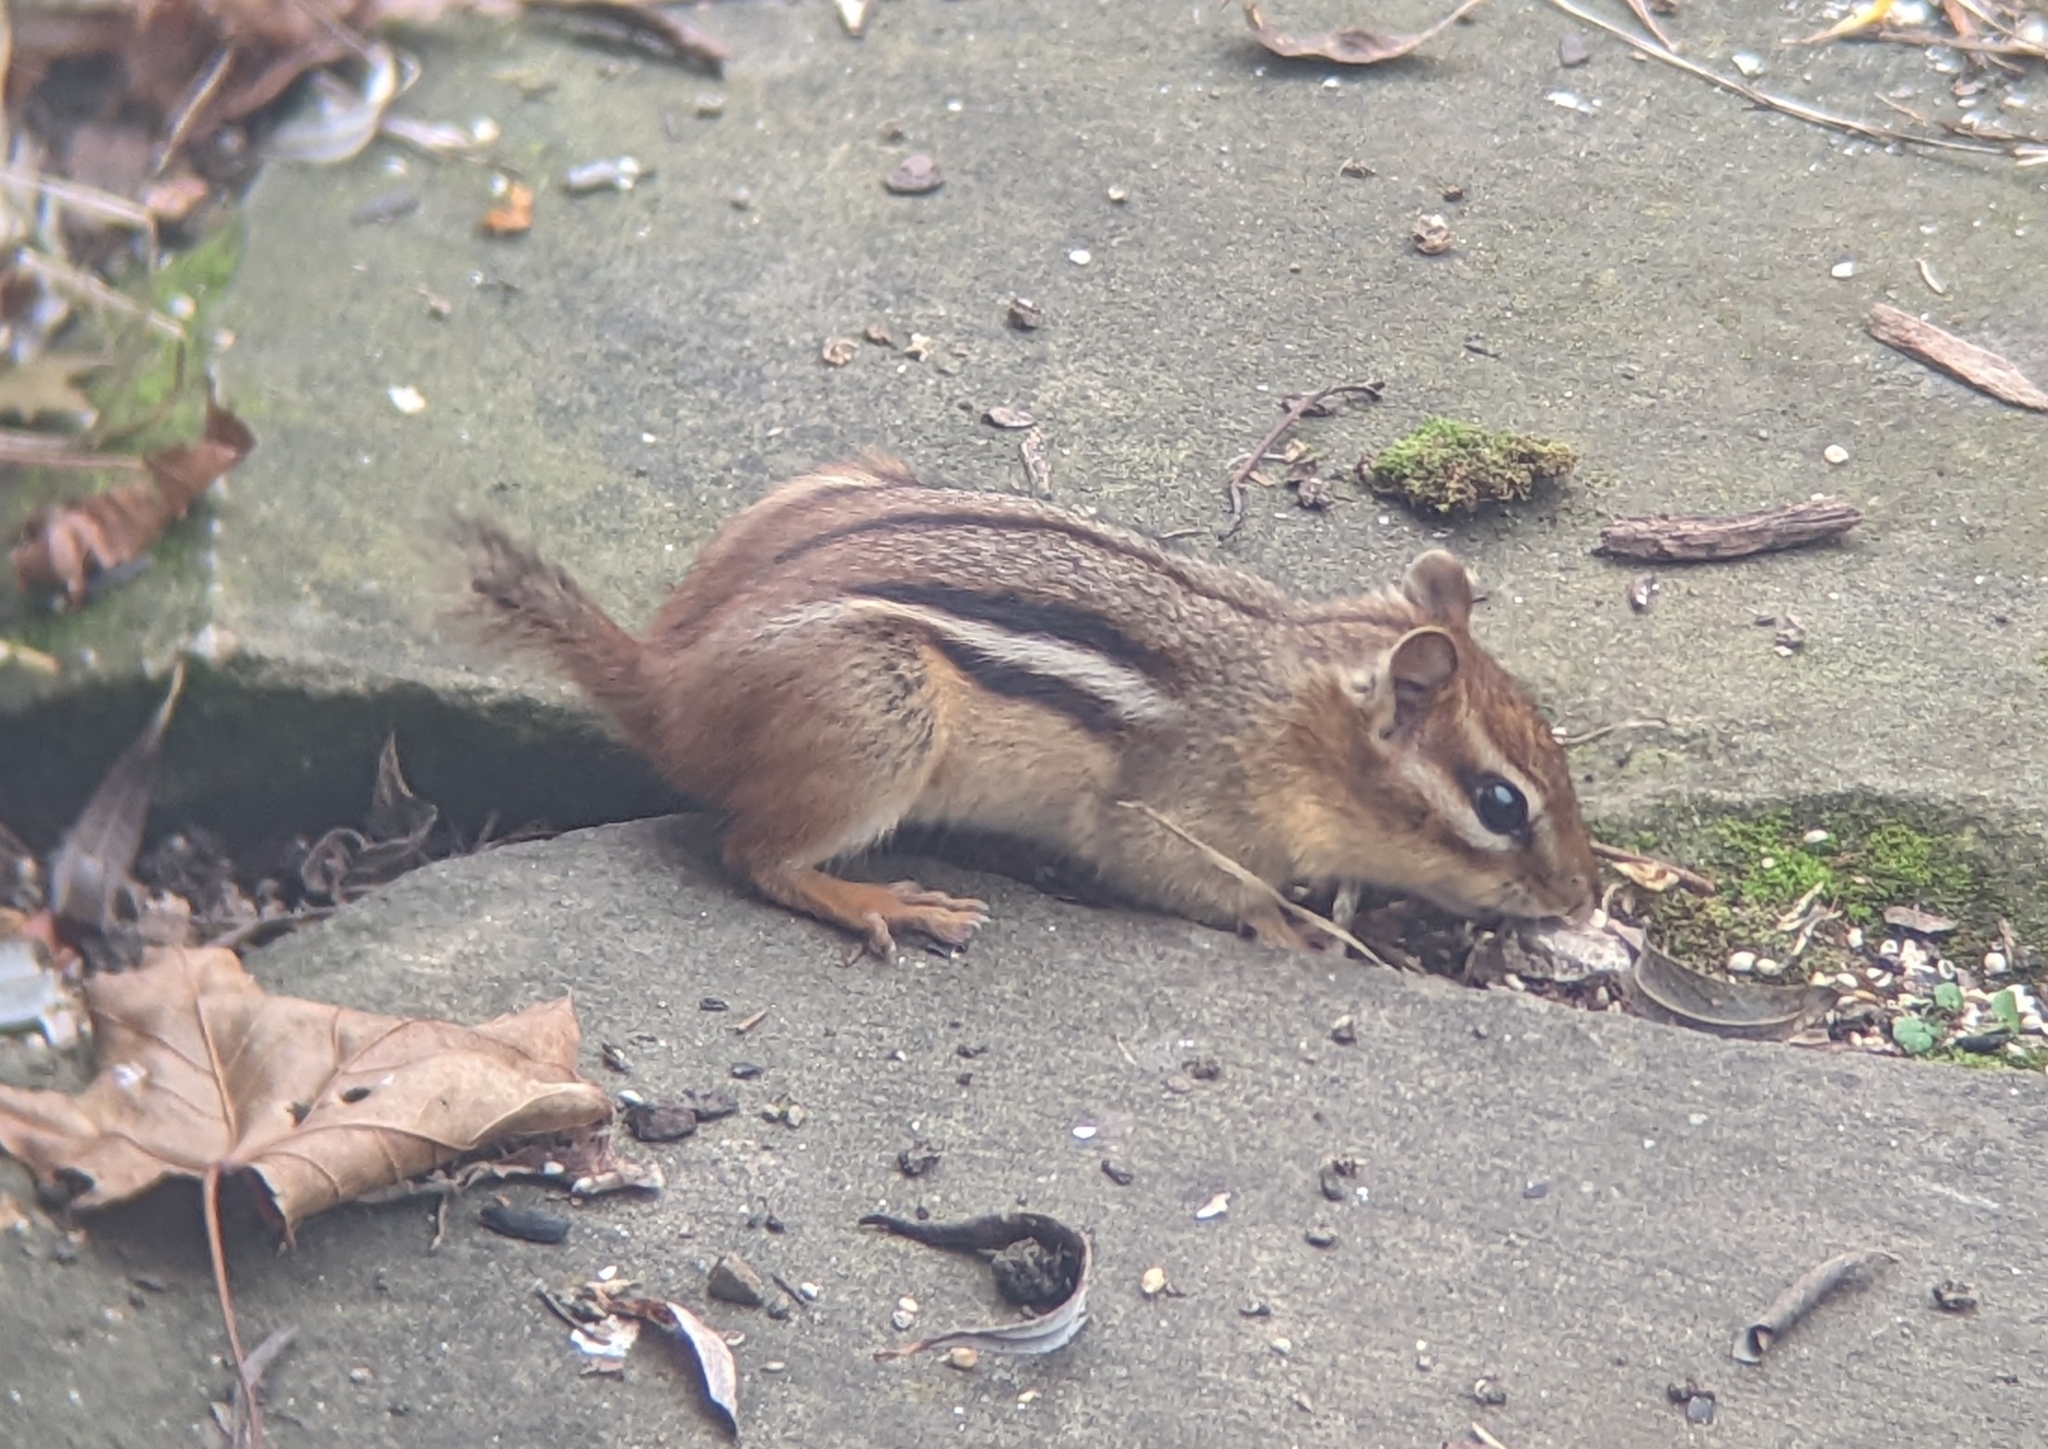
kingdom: Animalia
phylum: Chordata
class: Mammalia
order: Rodentia
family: Sciuridae
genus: Tamias
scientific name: Tamias striatus
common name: Eastern chipmunk
